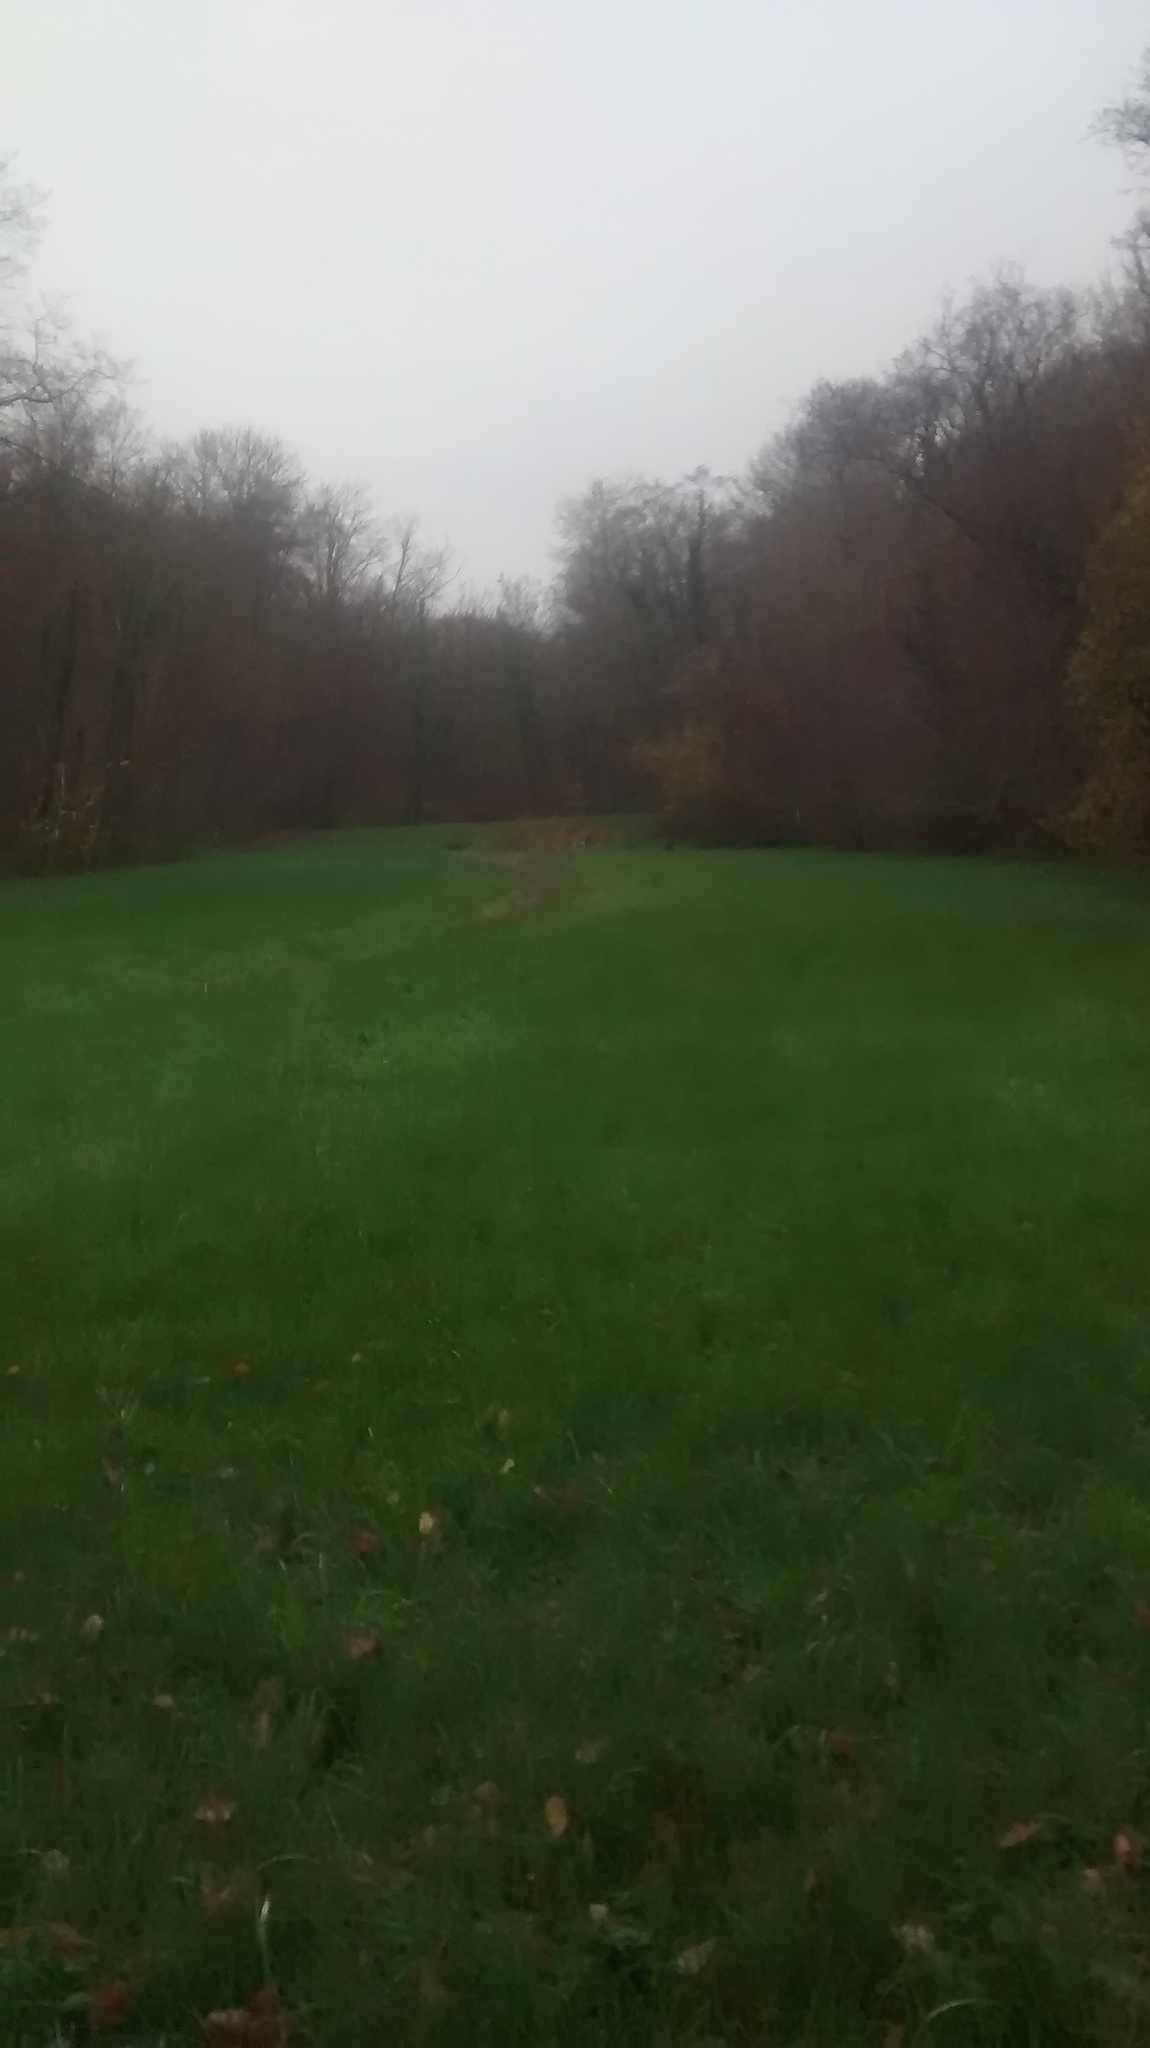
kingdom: Animalia
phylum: Chordata
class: Mammalia
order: Artiodactyla
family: Cervidae
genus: Capreolus
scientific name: Capreolus capreolus
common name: Western roe deer
